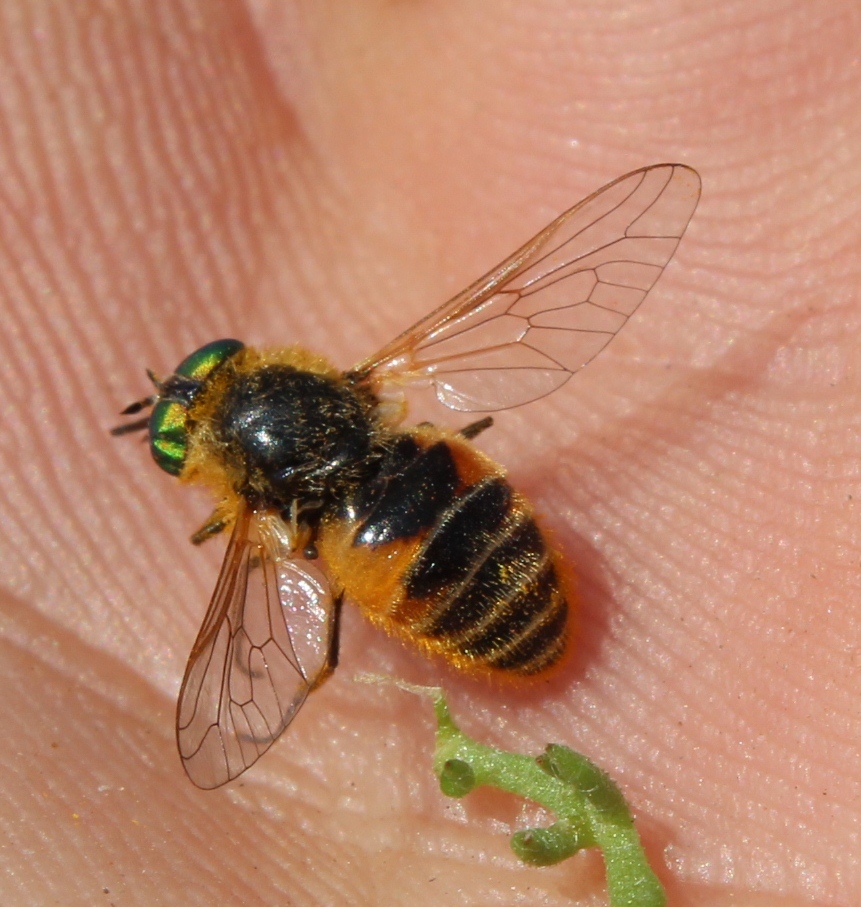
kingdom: Animalia
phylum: Arthropoda
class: Insecta
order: Diptera
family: Tabanidae
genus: Rhigioglossa
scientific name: Rhigioglossa edentula
